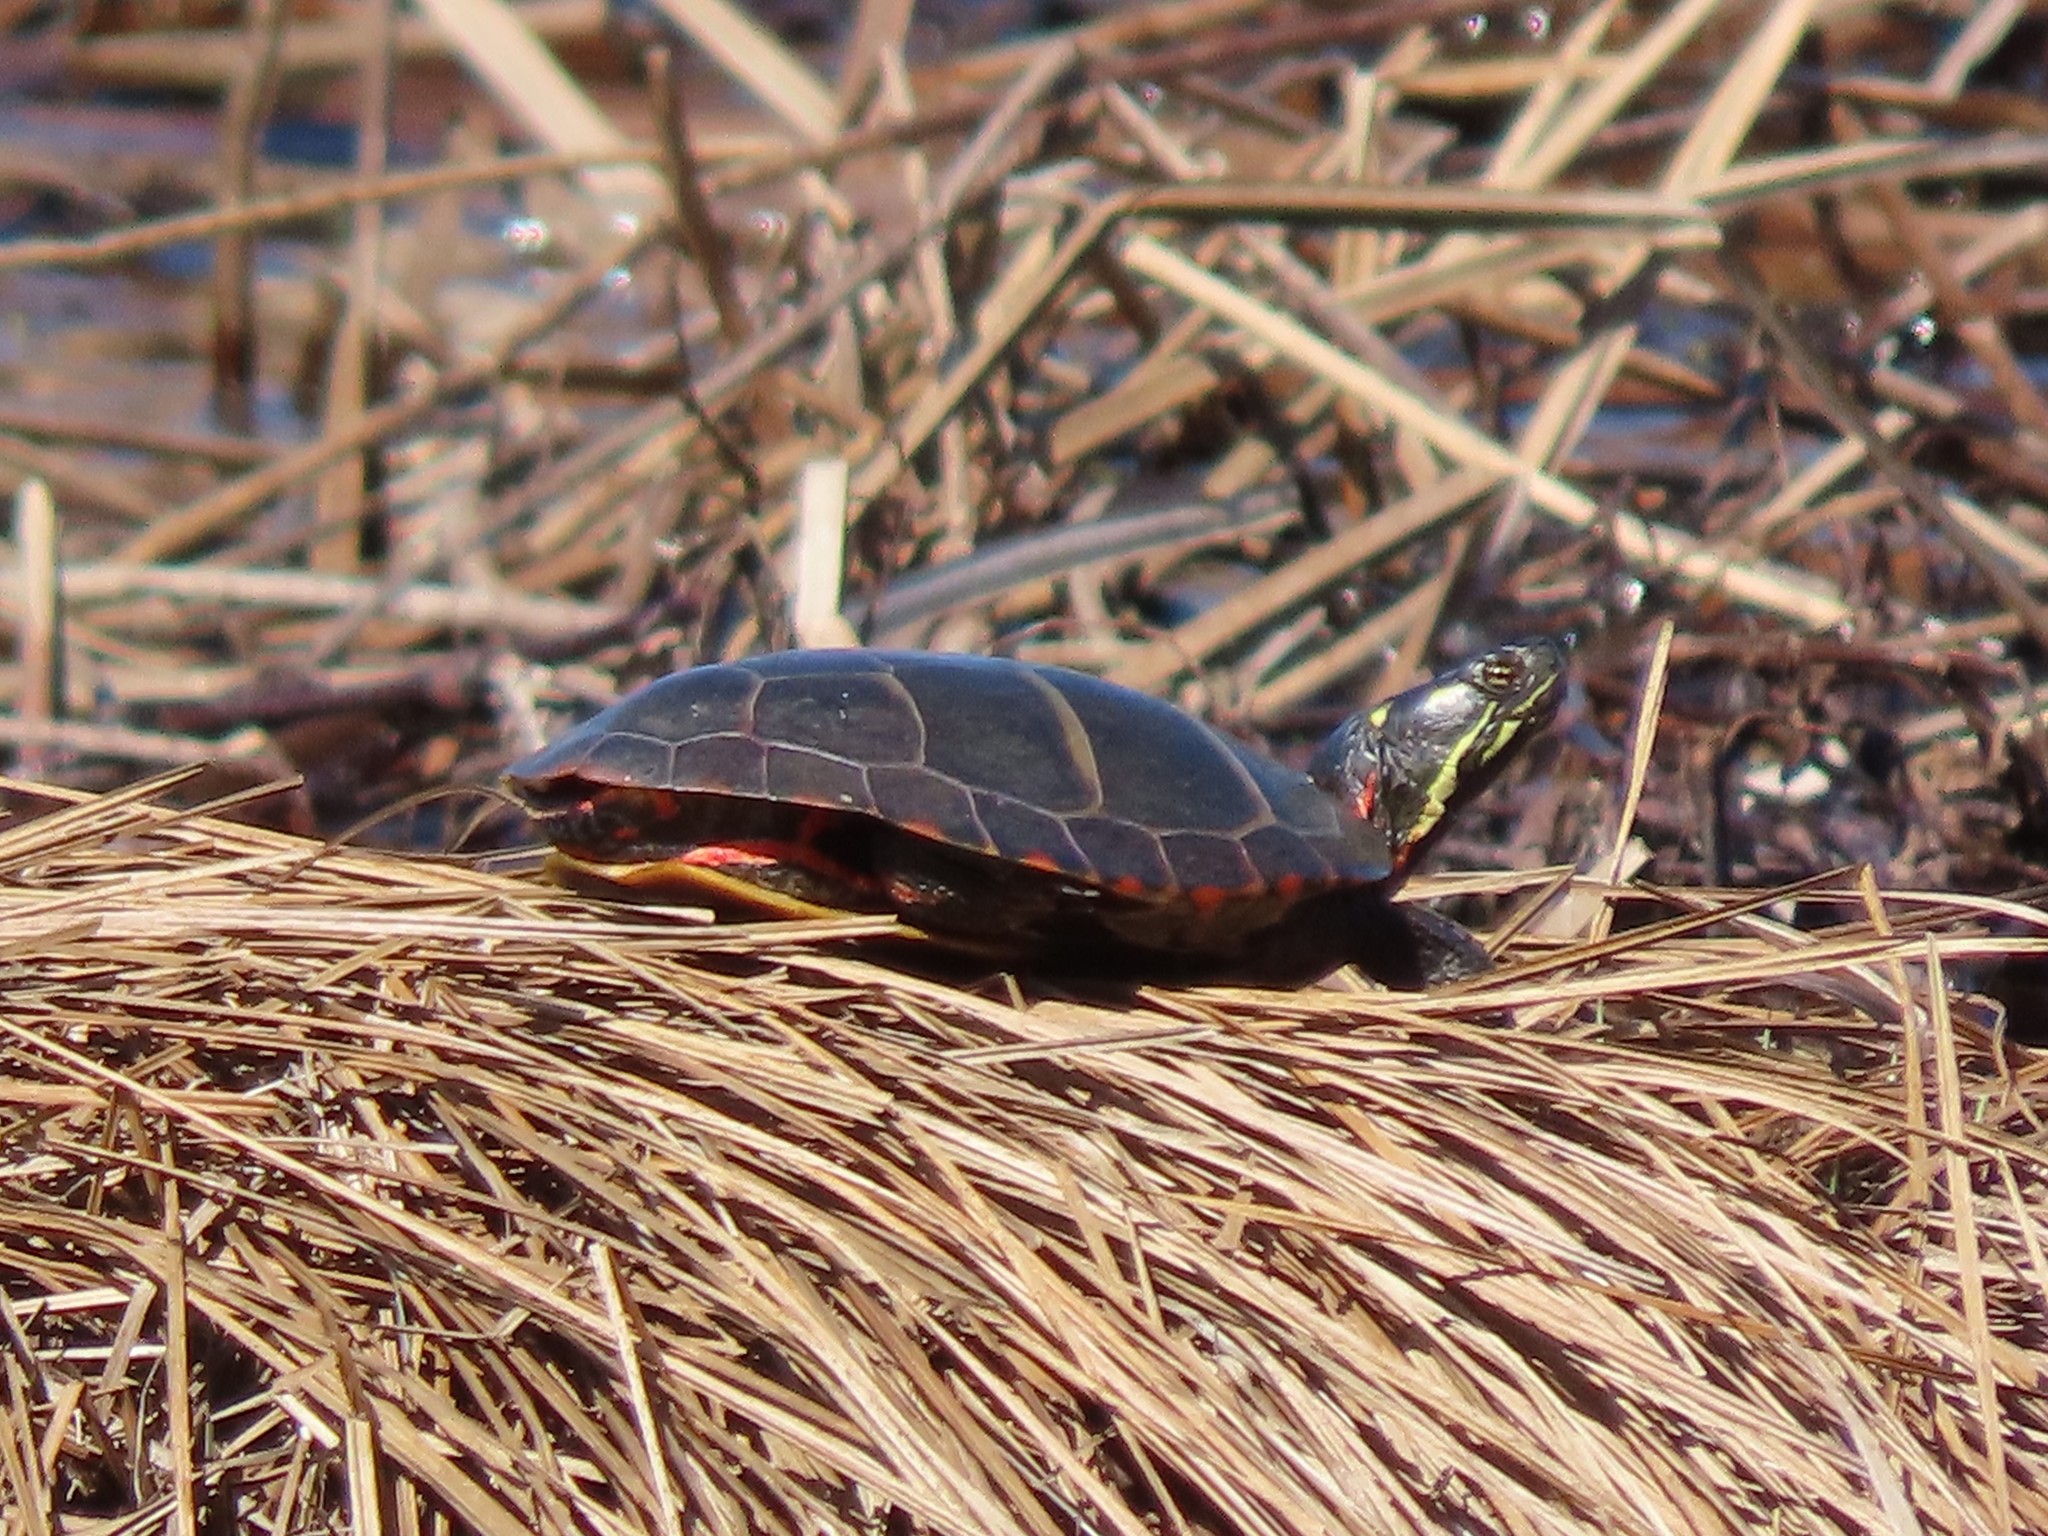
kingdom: Animalia
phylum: Chordata
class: Testudines
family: Emydidae
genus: Chrysemys
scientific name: Chrysemys picta
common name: Painted turtle
